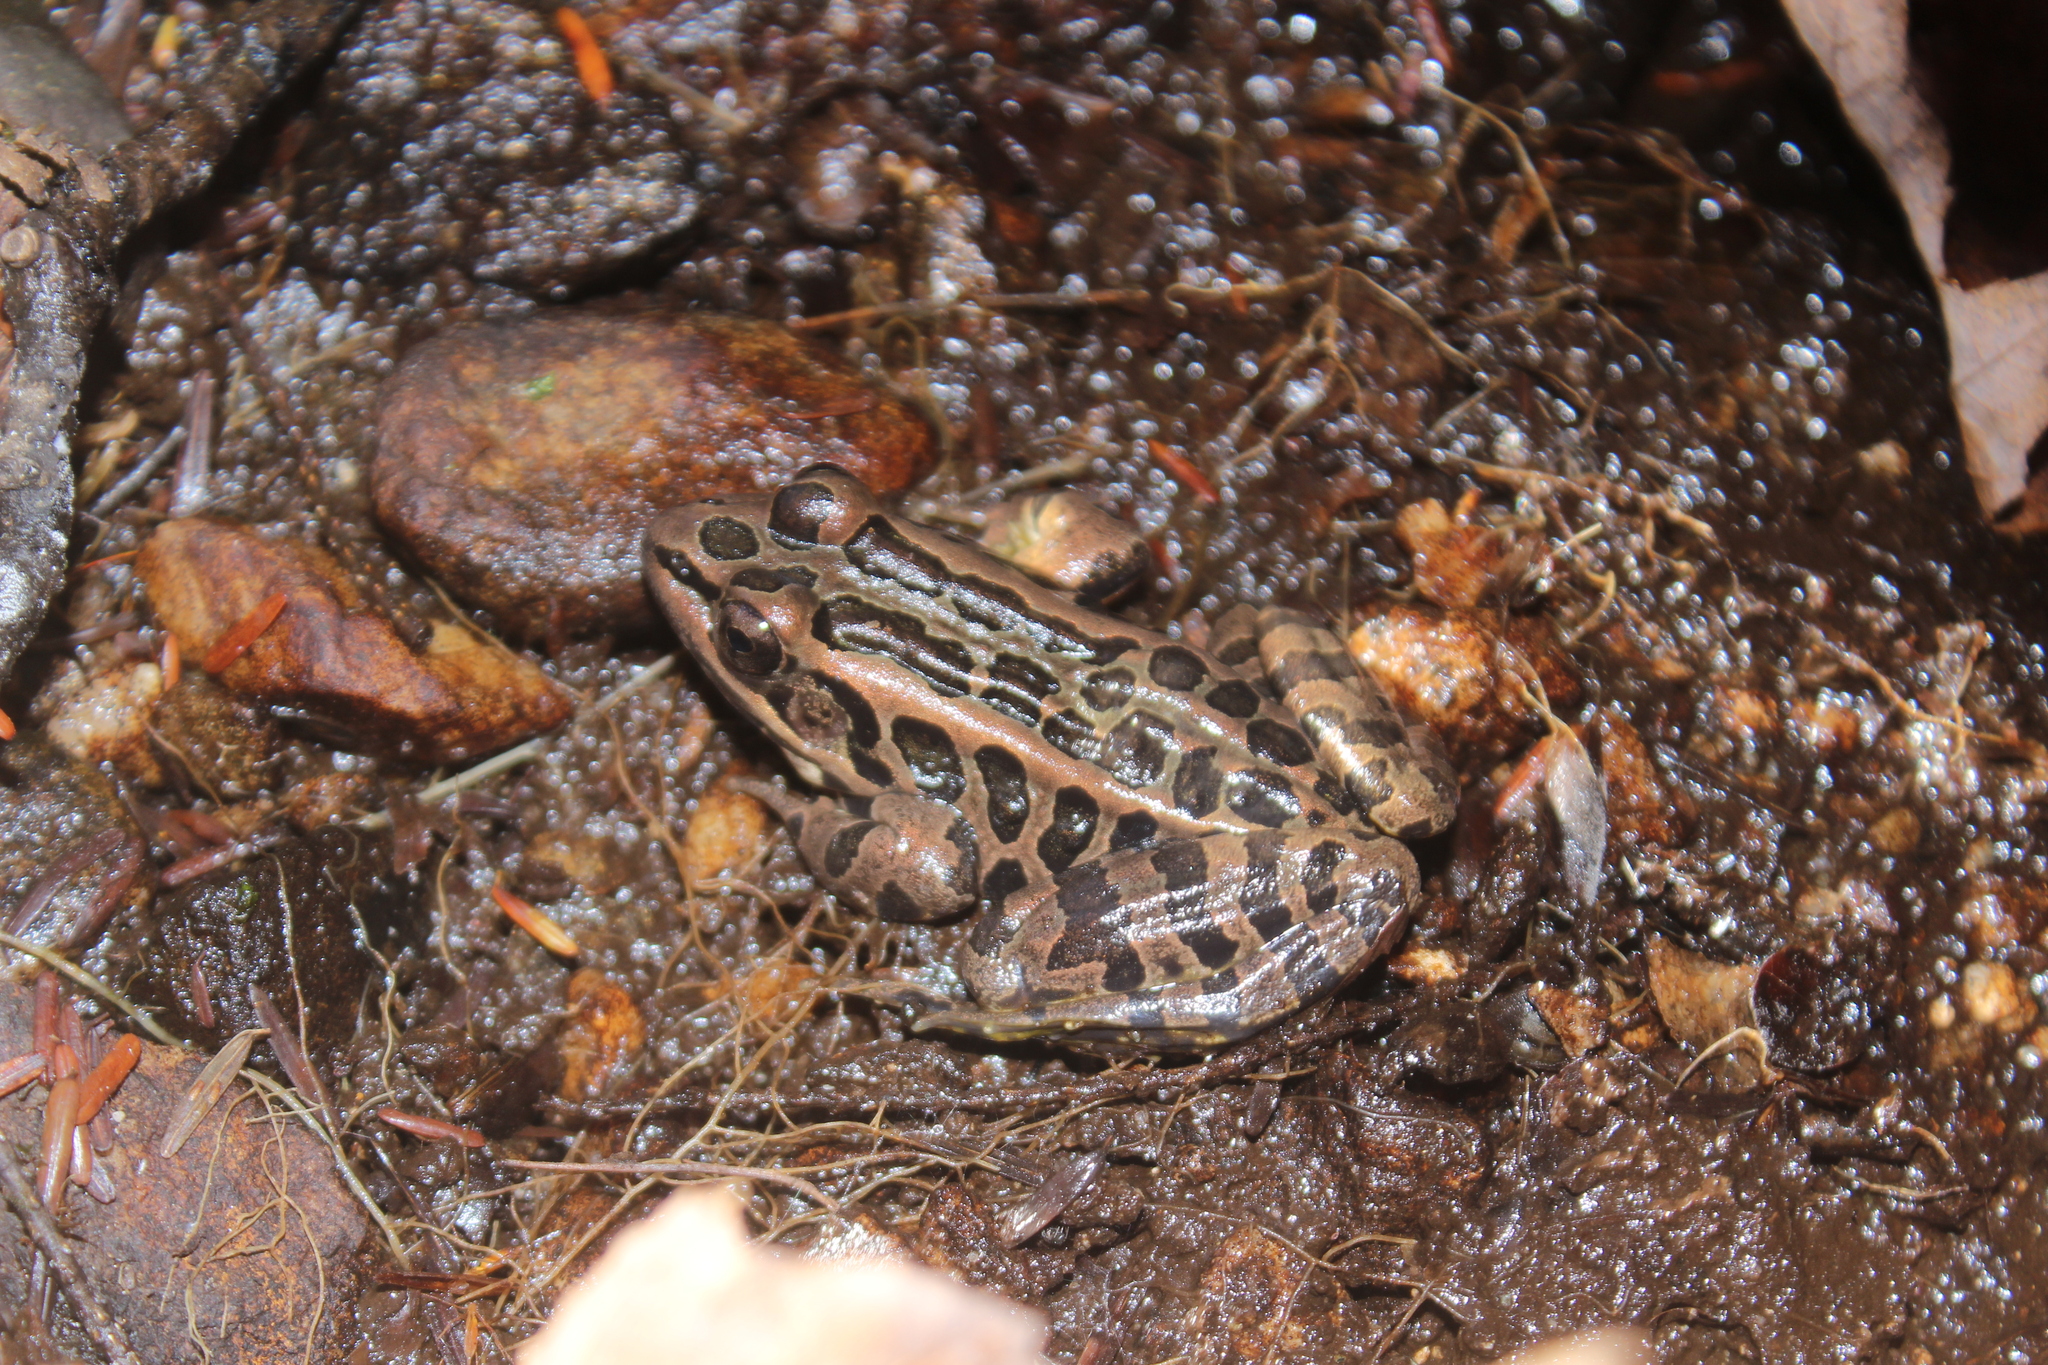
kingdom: Animalia
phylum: Chordata
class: Amphibia
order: Anura
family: Ranidae
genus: Lithobates
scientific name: Lithobates palustris
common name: Pickerel frog
